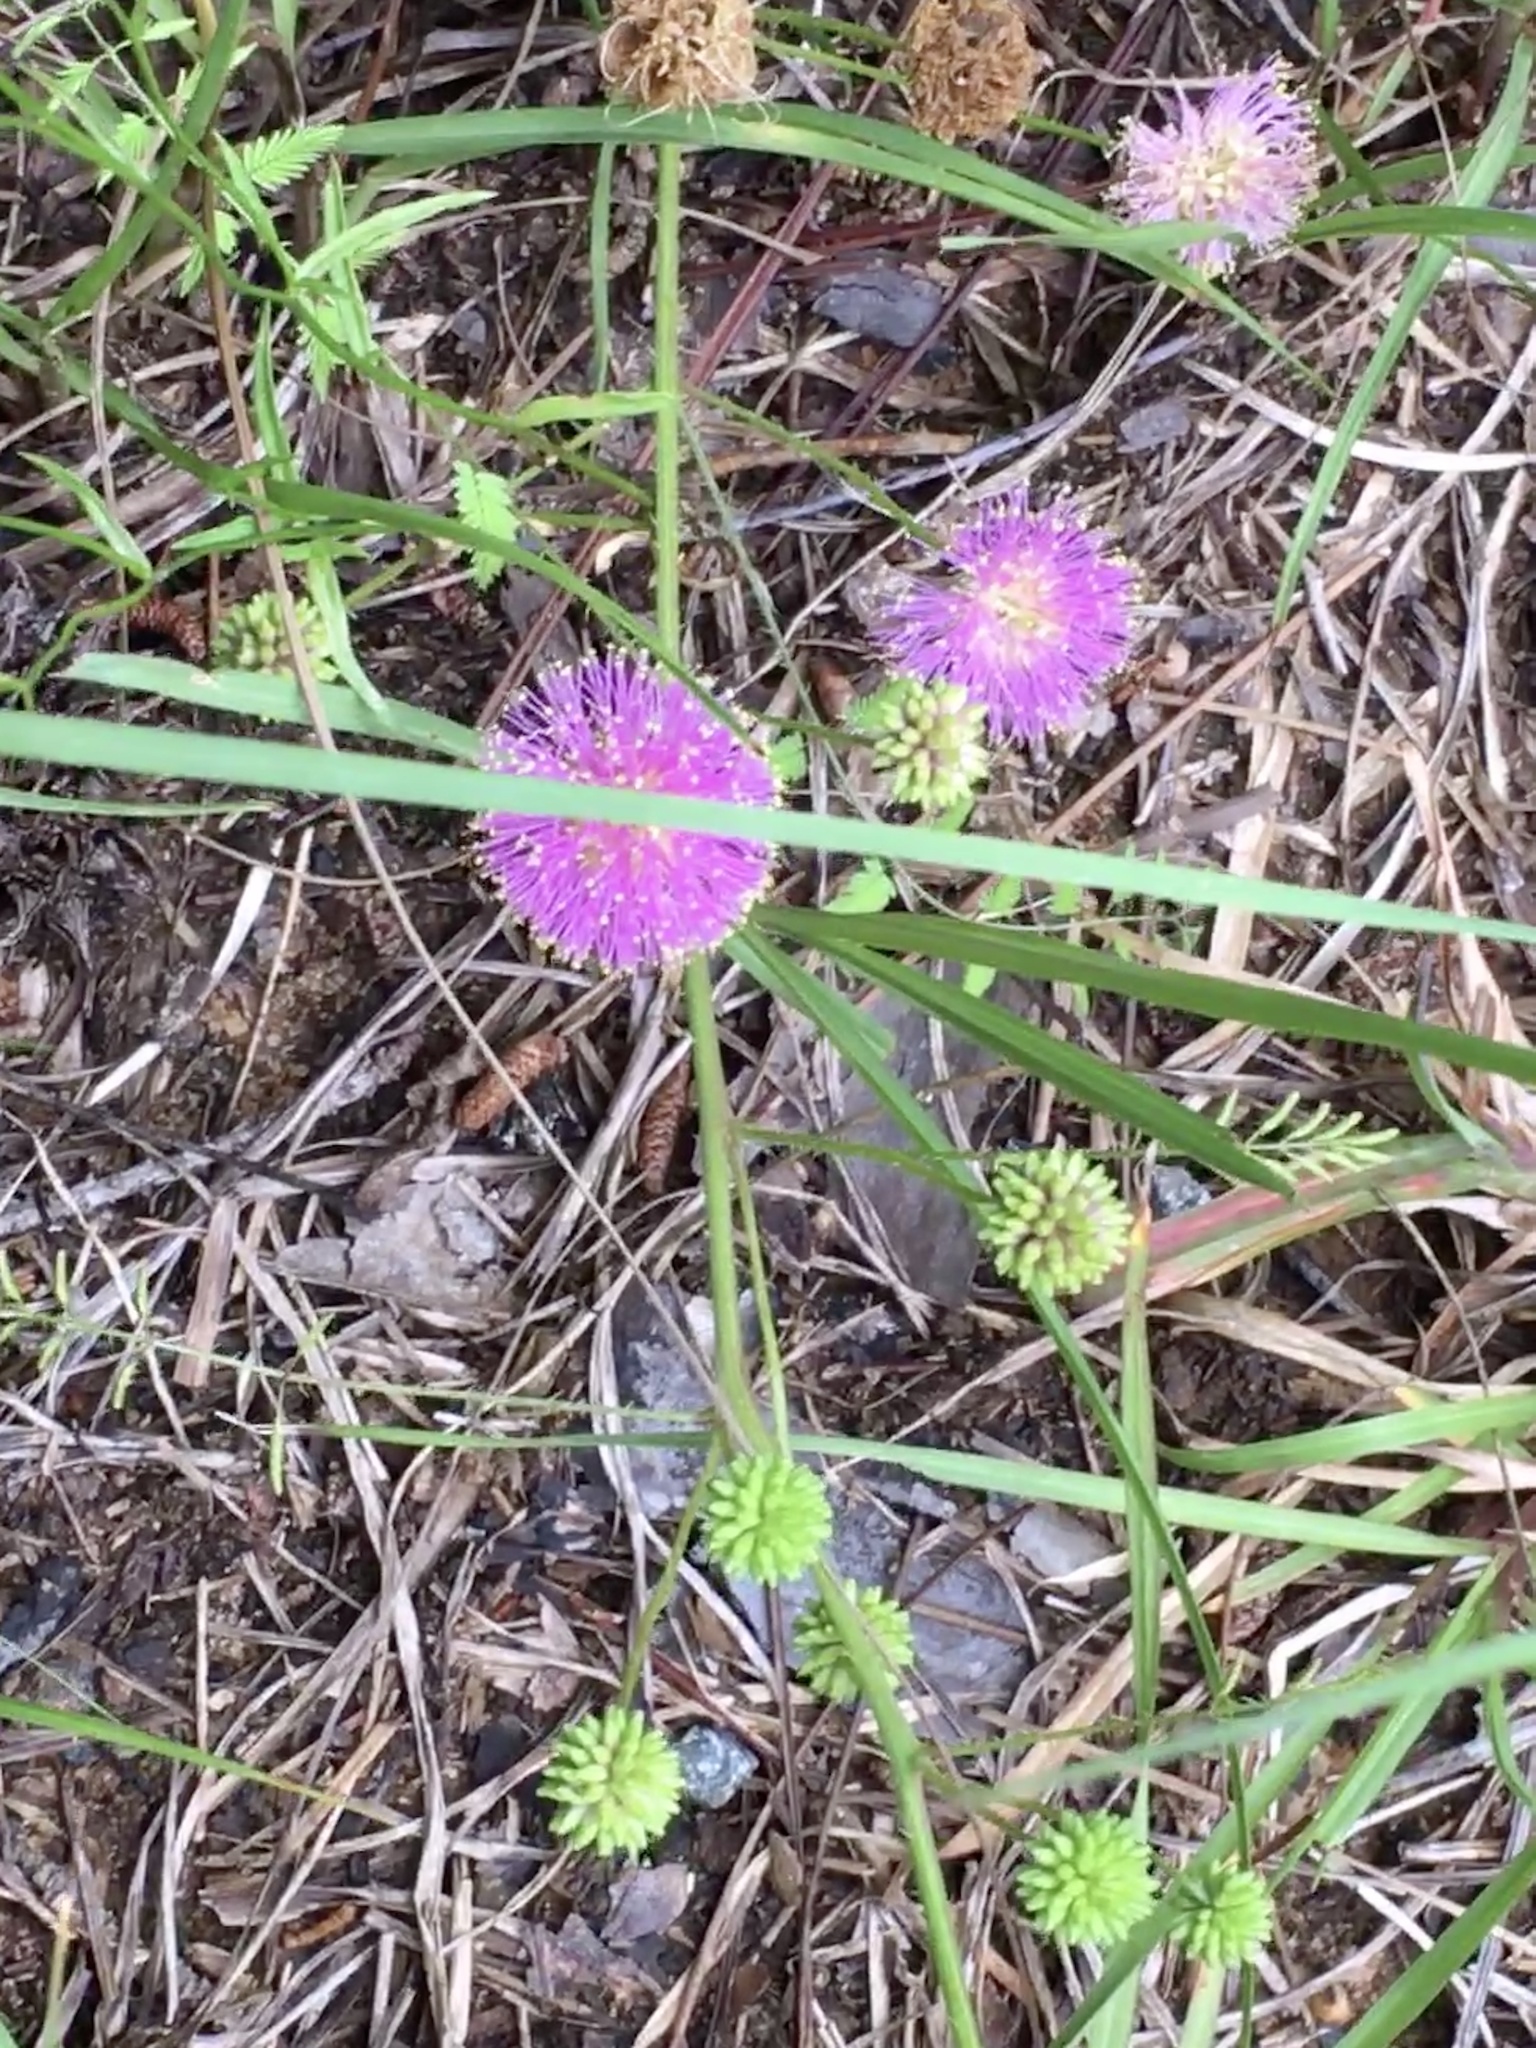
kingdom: Plantae
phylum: Tracheophyta
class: Magnoliopsida
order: Fabales
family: Fabaceae
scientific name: Fabaceae
